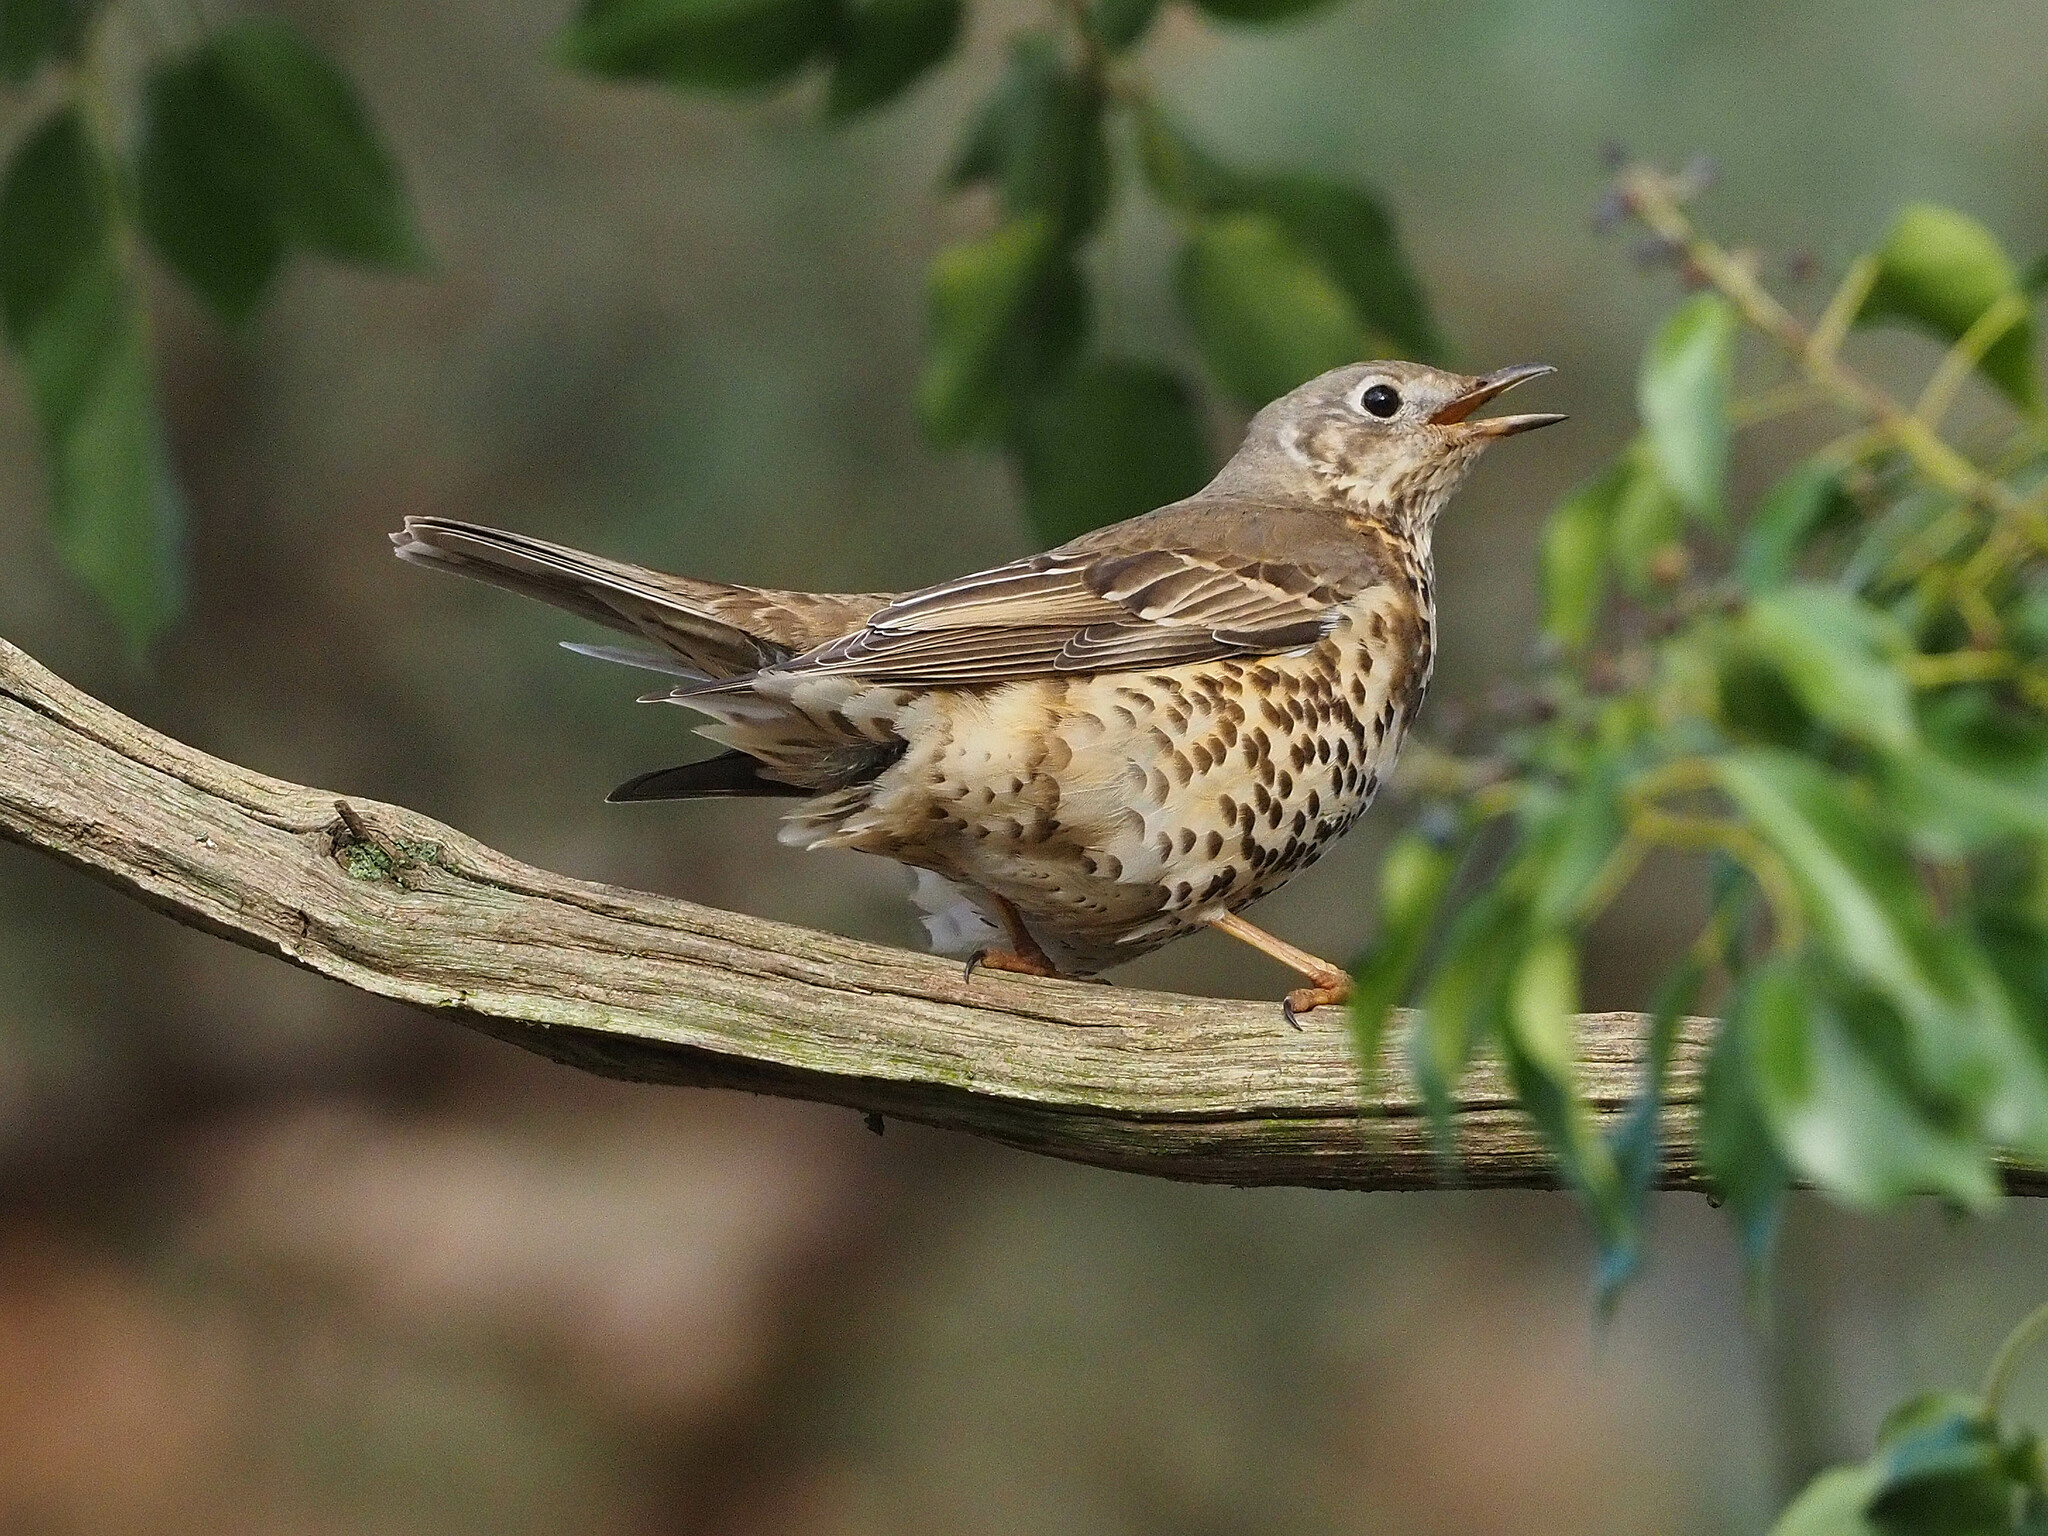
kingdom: Animalia
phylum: Chordata
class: Aves
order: Passeriformes
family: Turdidae
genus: Turdus
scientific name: Turdus viscivorus
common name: Mistle thrush
